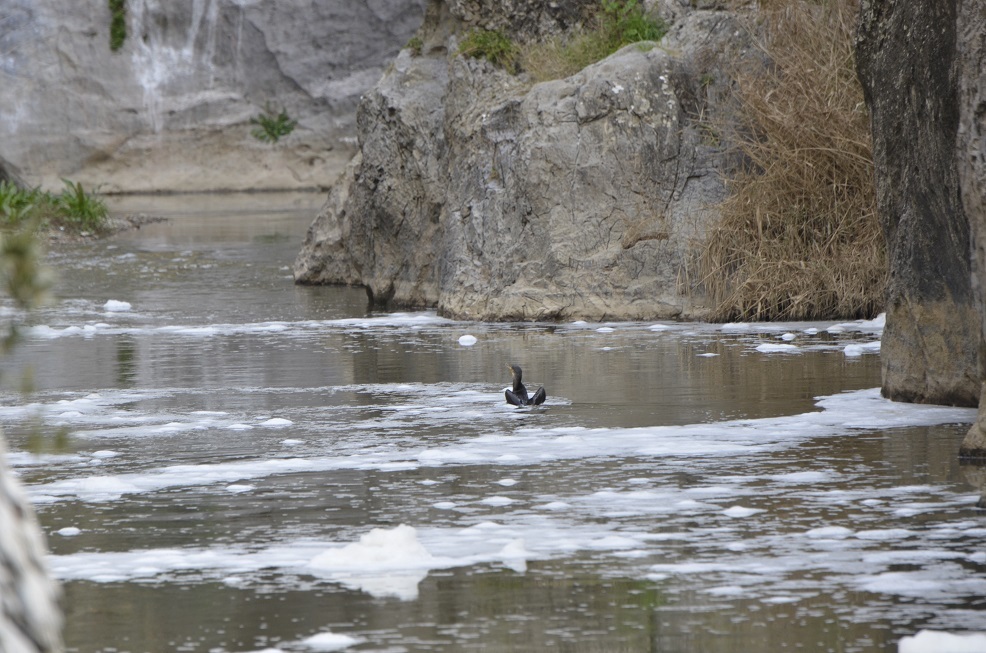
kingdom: Animalia
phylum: Chordata
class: Aves
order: Suliformes
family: Phalacrocoracidae
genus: Phalacrocorax
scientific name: Phalacrocorax carbo
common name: Great cormorant
